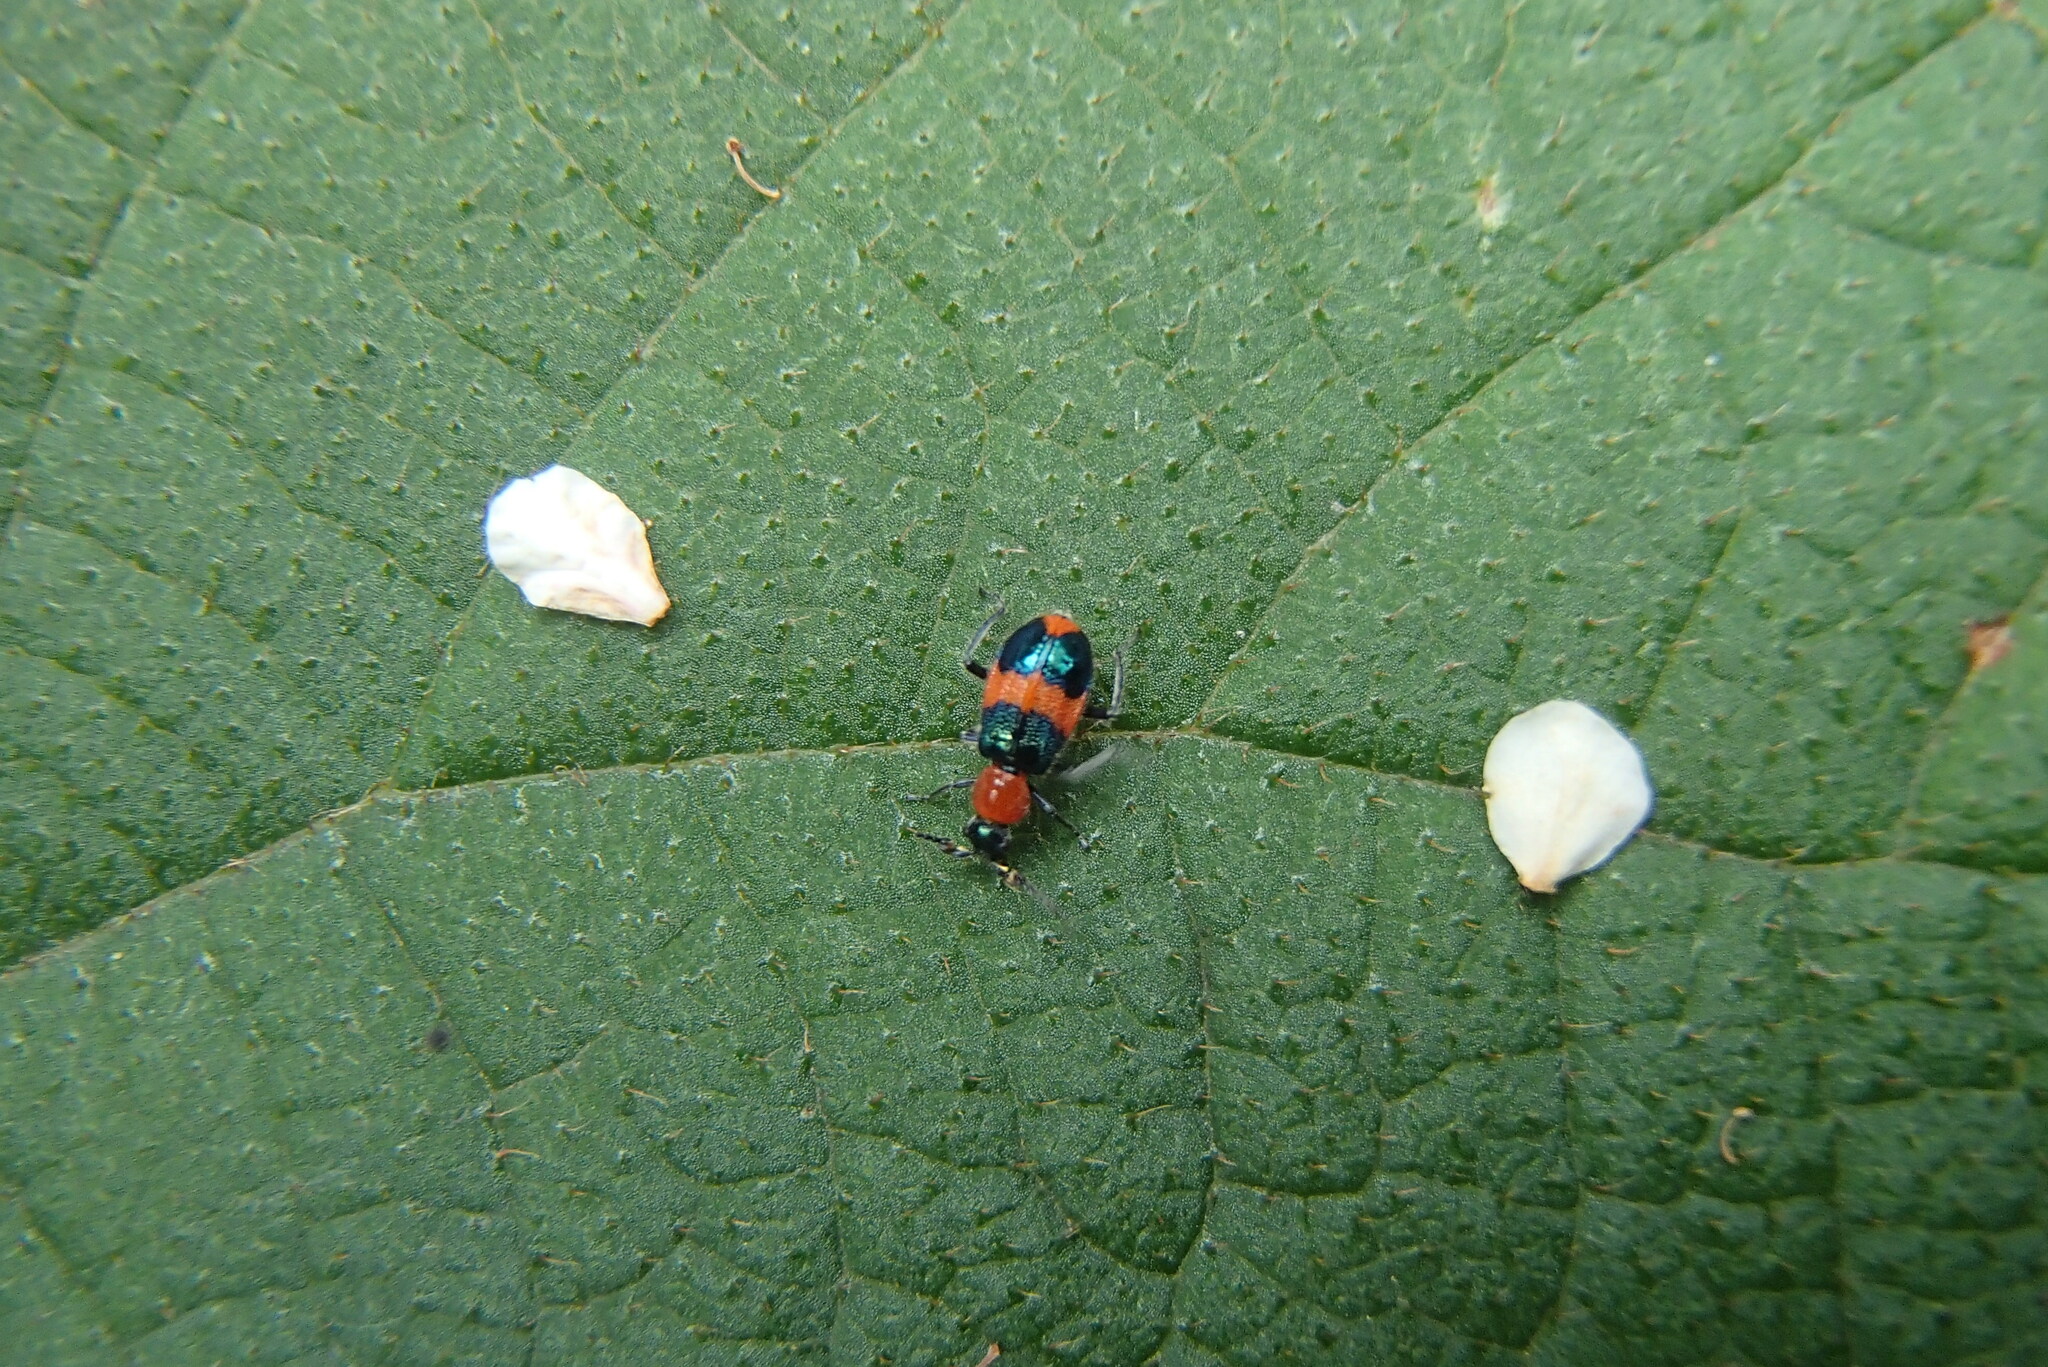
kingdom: Animalia
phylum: Arthropoda
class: Insecta
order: Coleoptera
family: Melyridae
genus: Dicranolaius
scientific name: Dicranolaius bellulus
